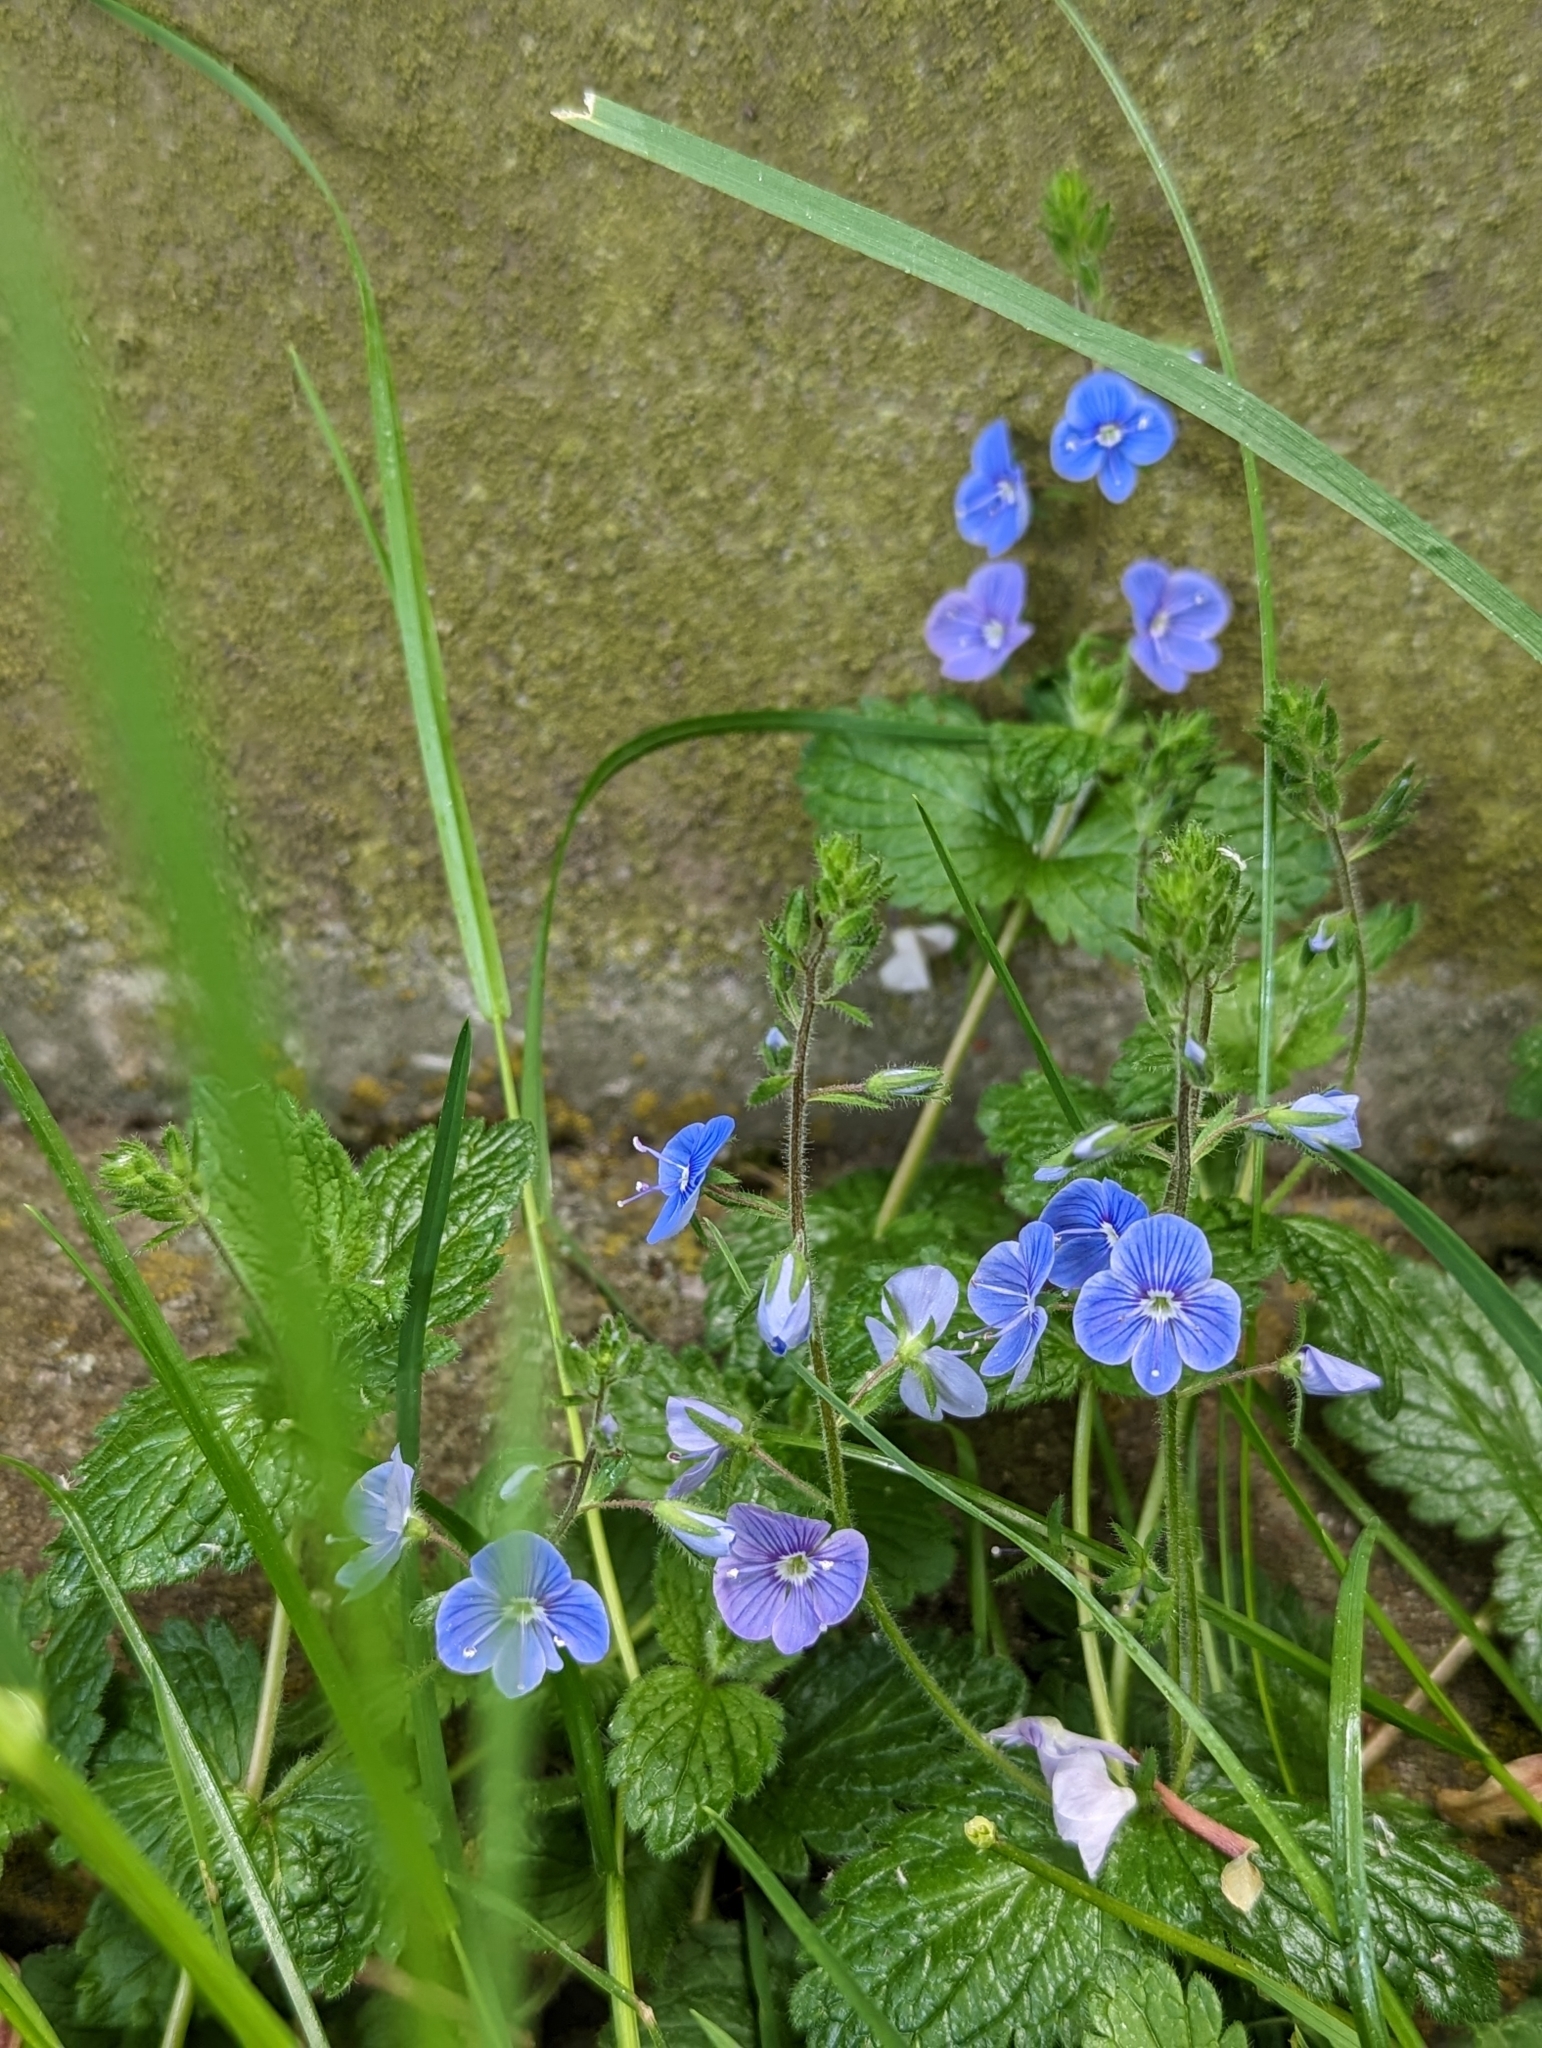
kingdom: Plantae
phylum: Tracheophyta
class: Magnoliopsida
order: Lamiales
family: Plantaginaceae
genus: Veronica
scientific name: Veronica chamaedrys
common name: Germander speedwell
